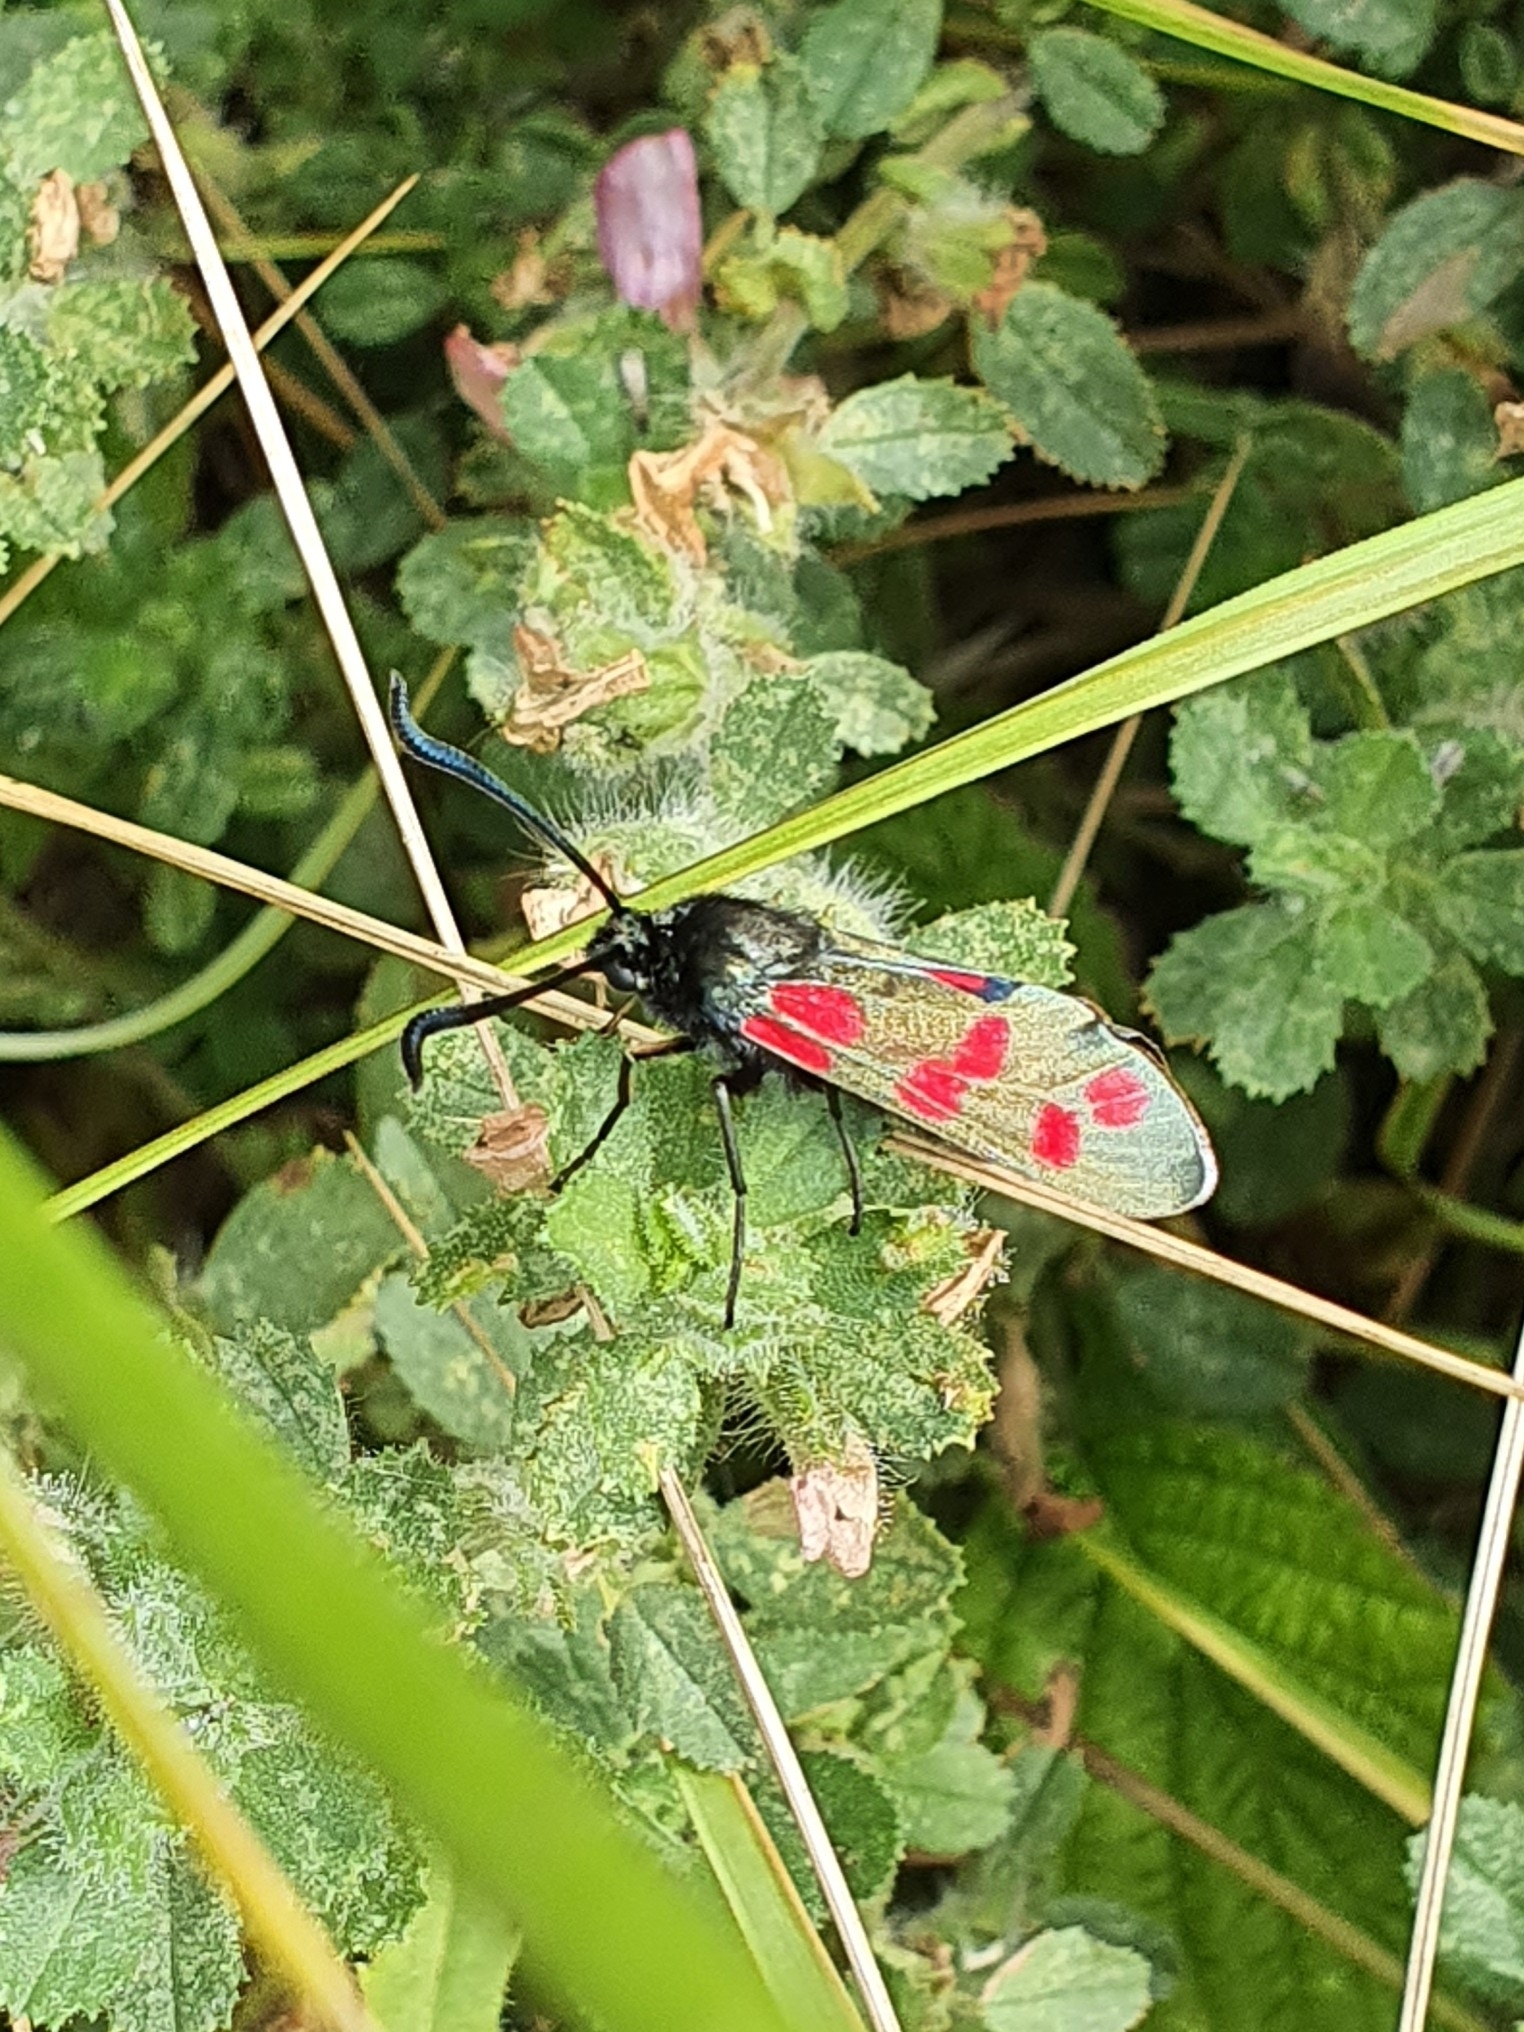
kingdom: Animalia
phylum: Arthropoda
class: Insecta
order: Lepidoptera
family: Zygaenidae
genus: Zygaena
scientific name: Zygaena filipendulae
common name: Six-spot burnet
